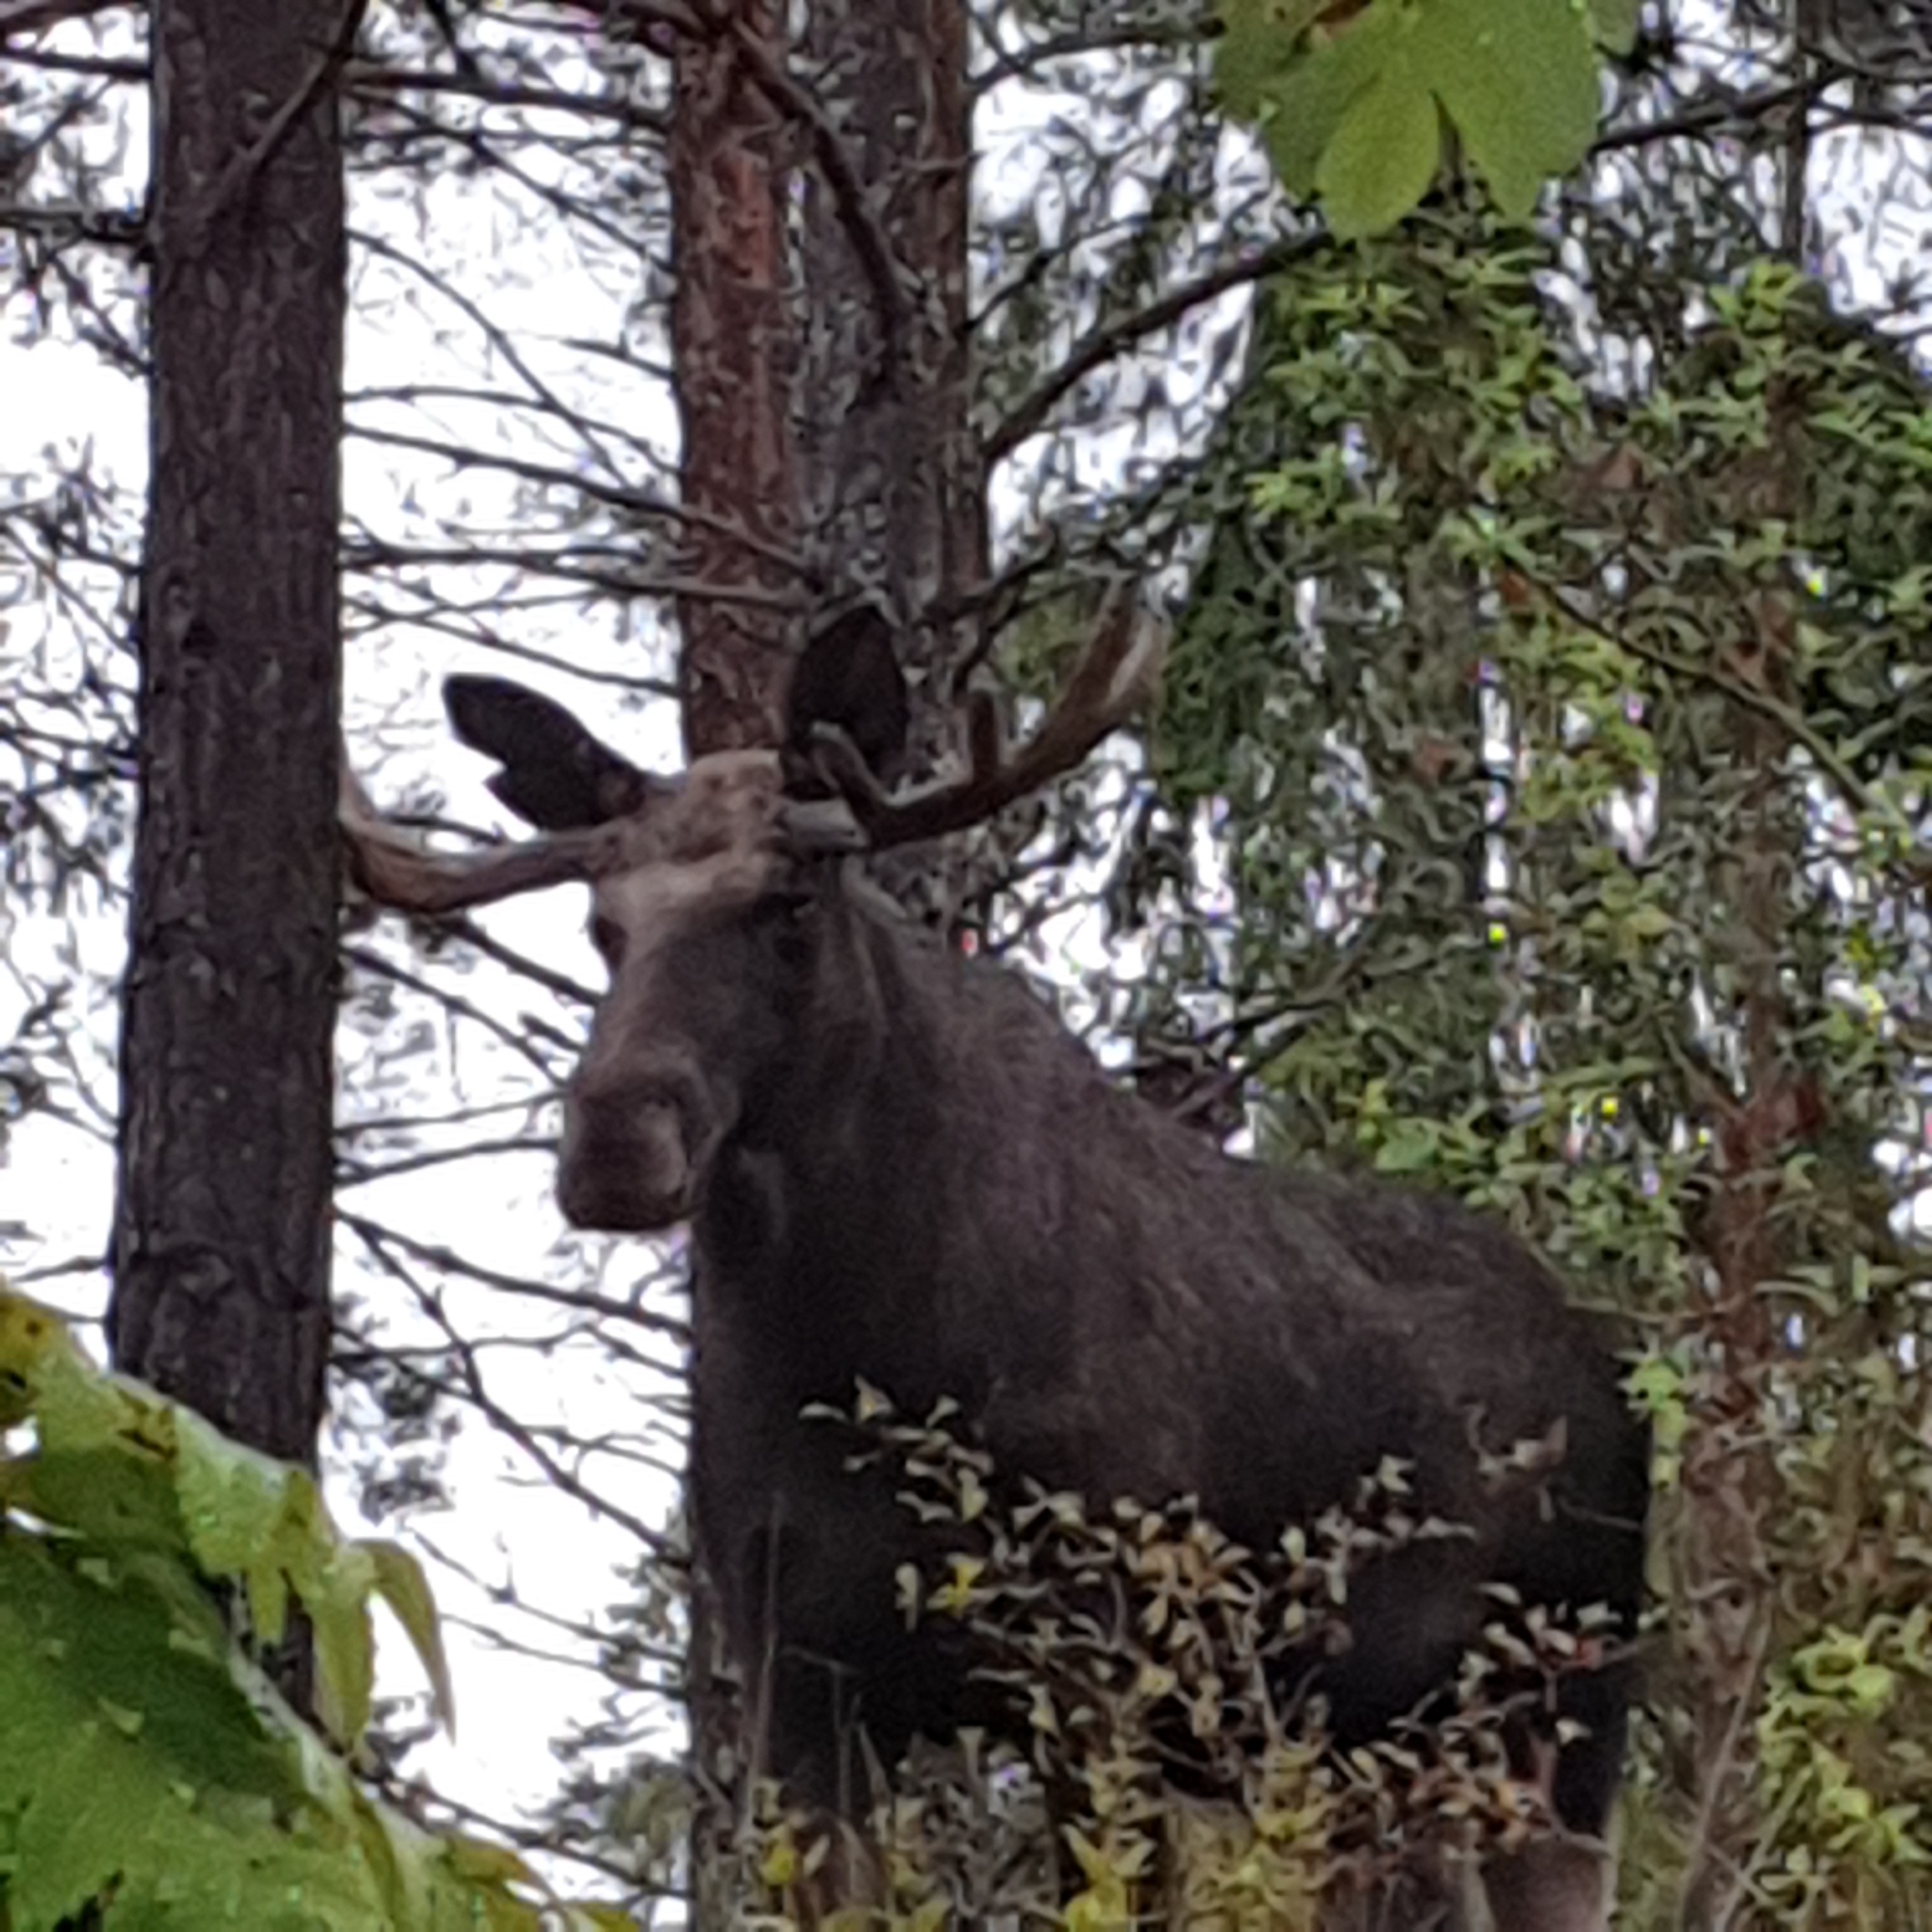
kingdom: Animalia
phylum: Chordata
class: Mammalia
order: Artiodactyla
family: Cervidae
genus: Alces
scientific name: Alces alces
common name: Moose
